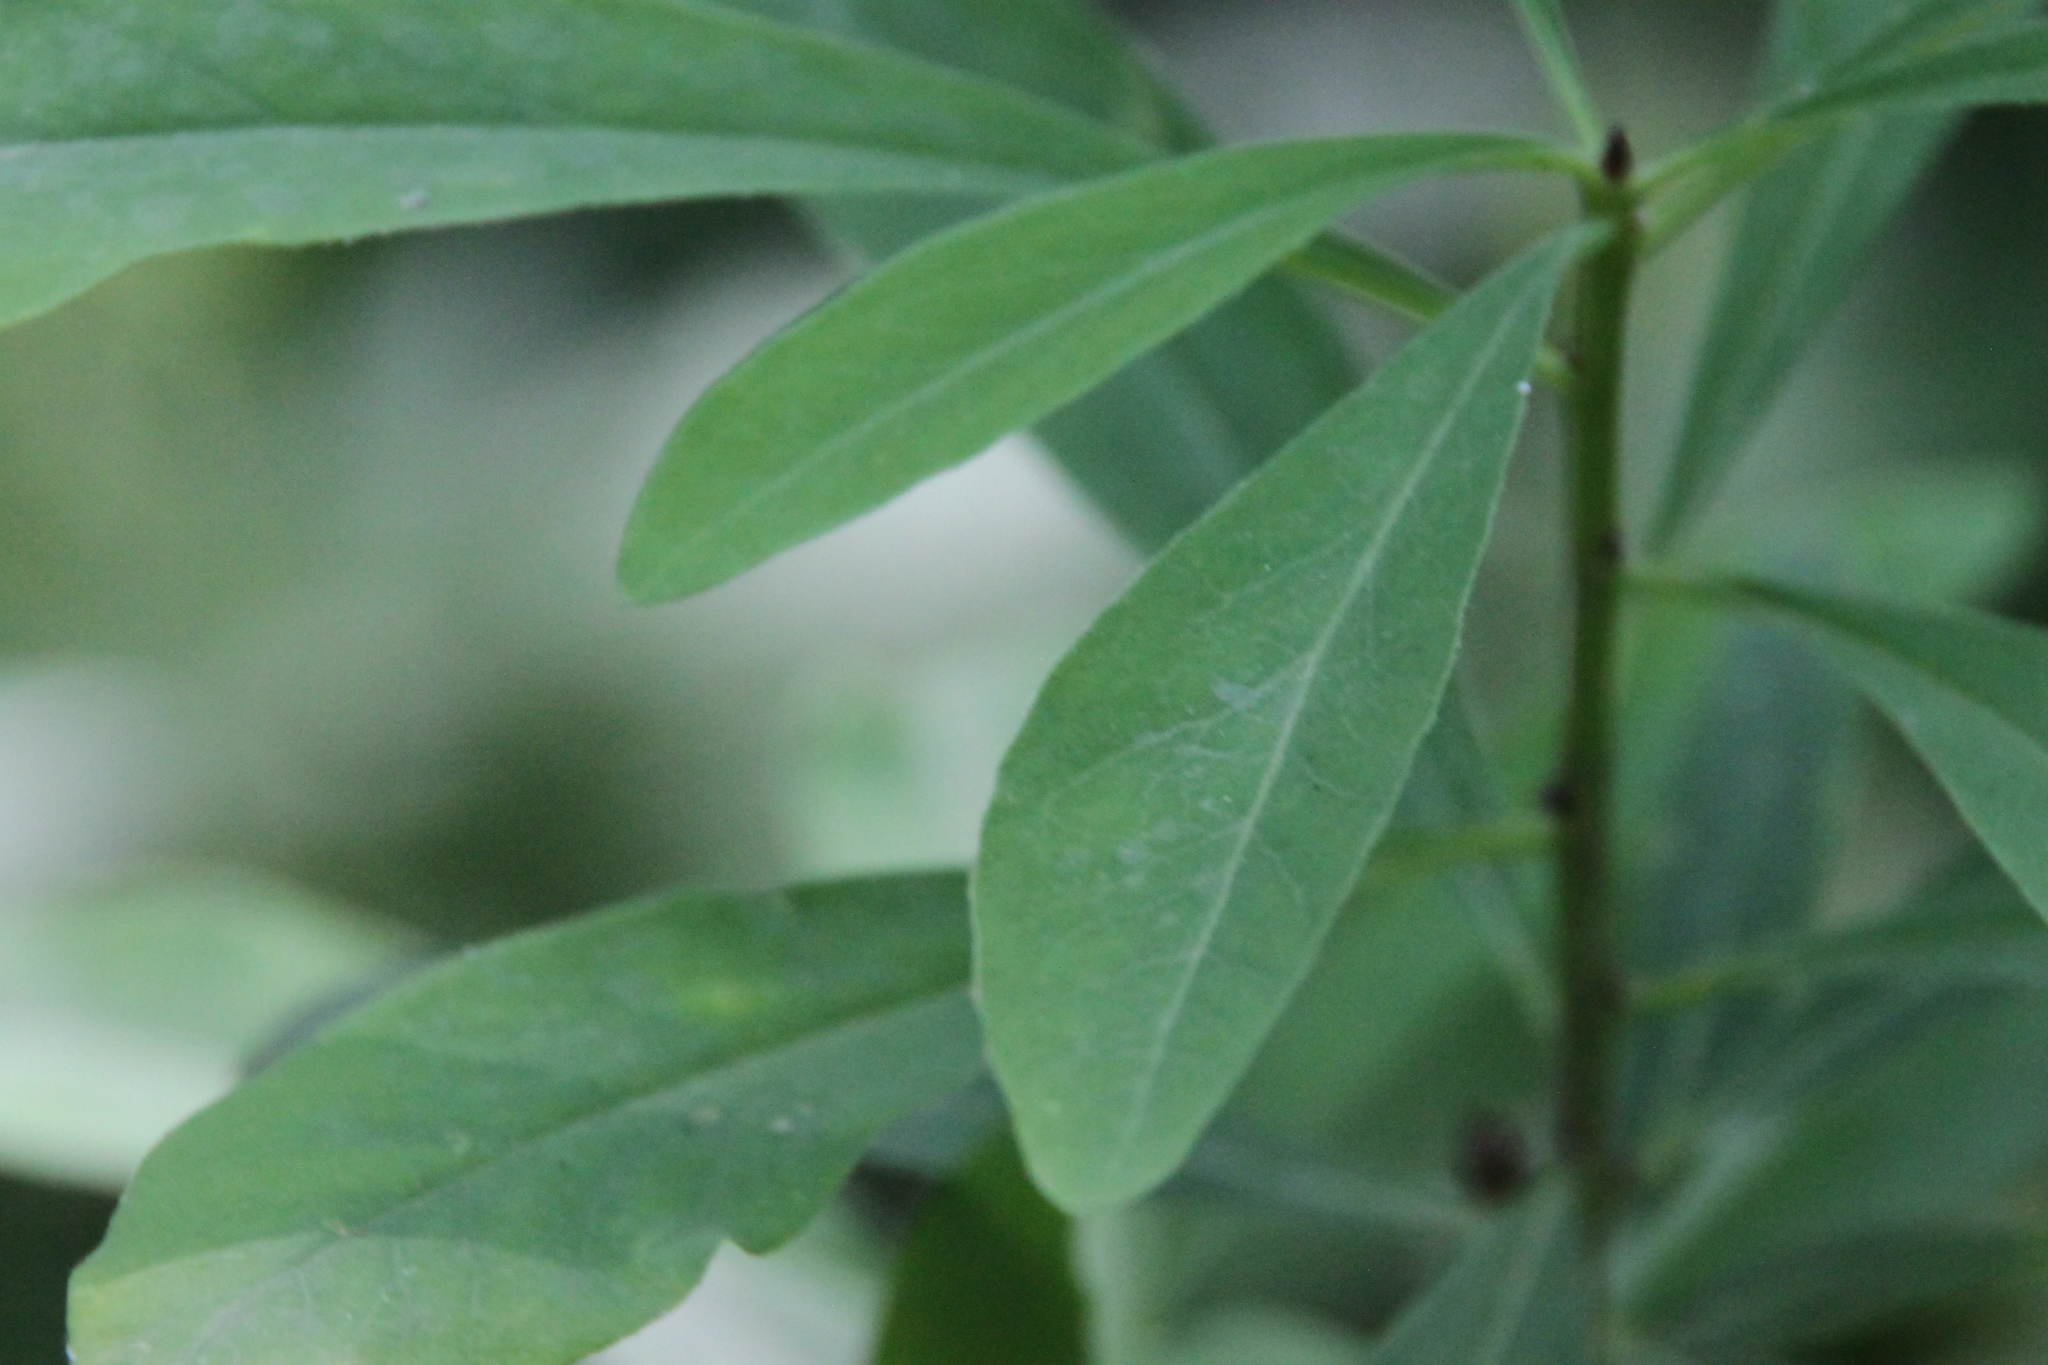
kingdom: Plantae
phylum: Tracheophyta
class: Magnoliopsida
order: Malvales
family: Thymelaeaceae
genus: Daphne
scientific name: Daphne mezereum
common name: Mezereon
